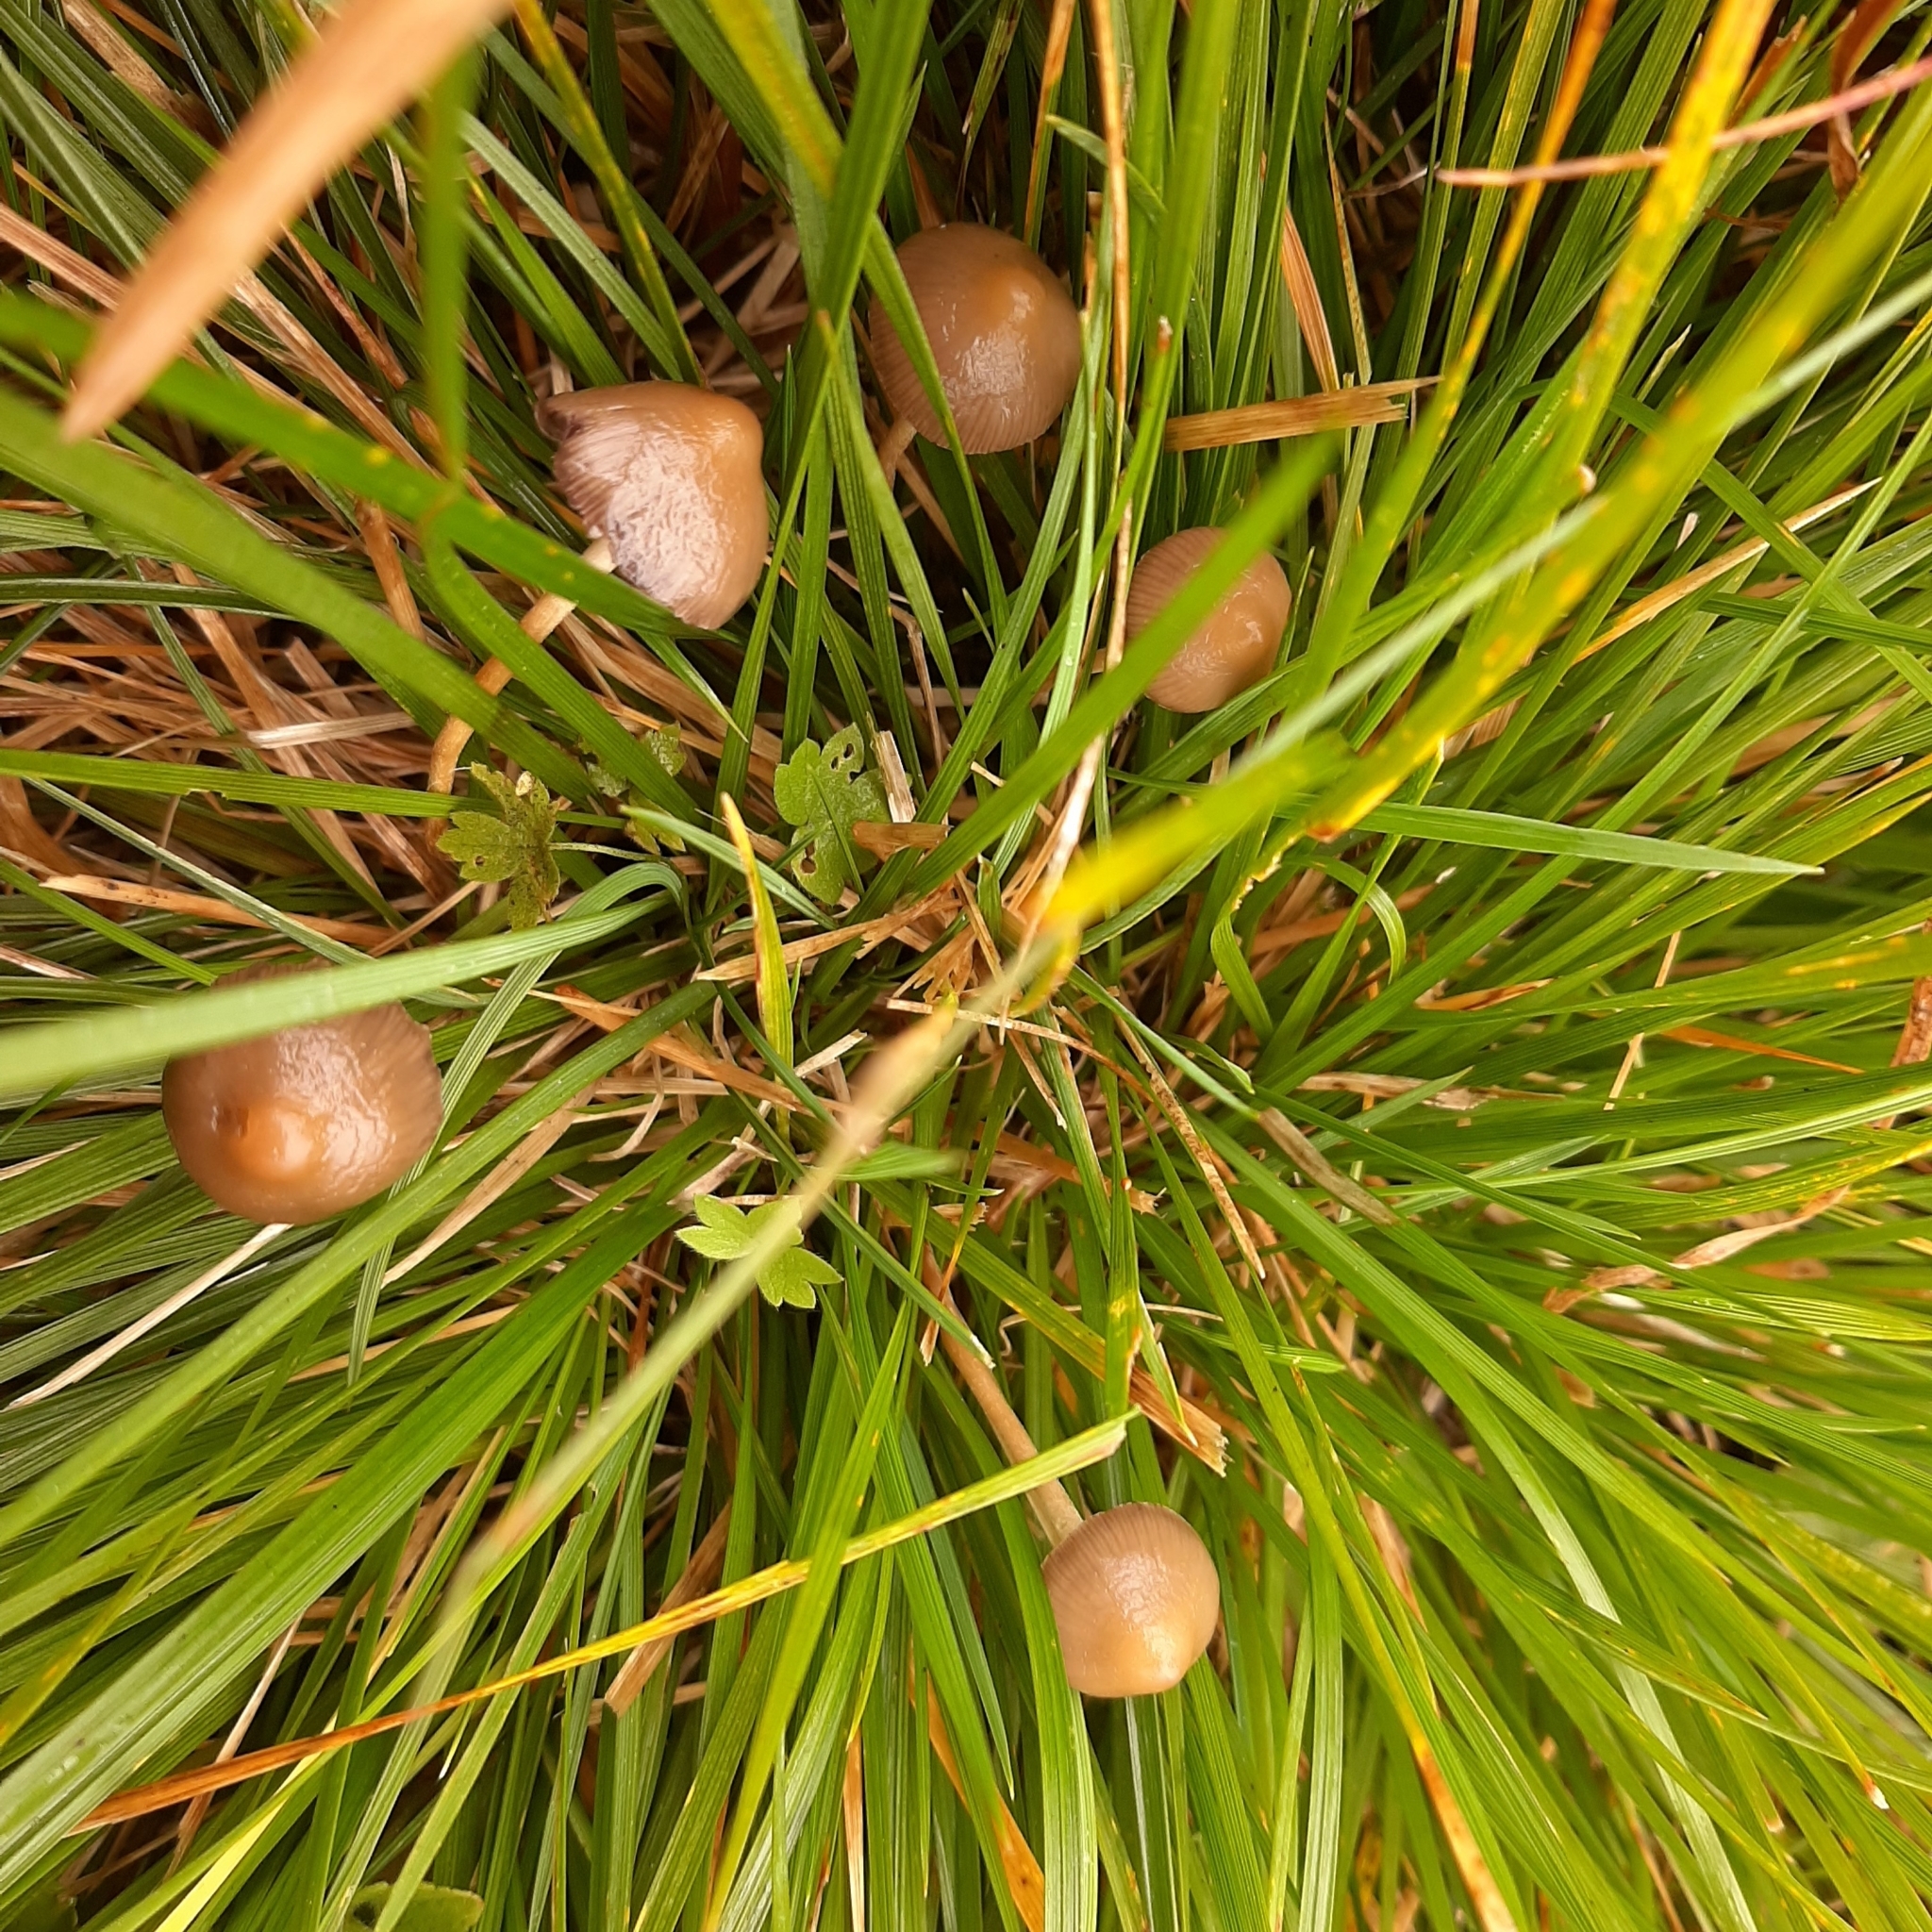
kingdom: Fungi
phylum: Basidiomycota
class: Agaricomycetes
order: Agaricales
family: Hymenogastraceae
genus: Psilocybe
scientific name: Psilocybe semilanceata
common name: Liberty cap
